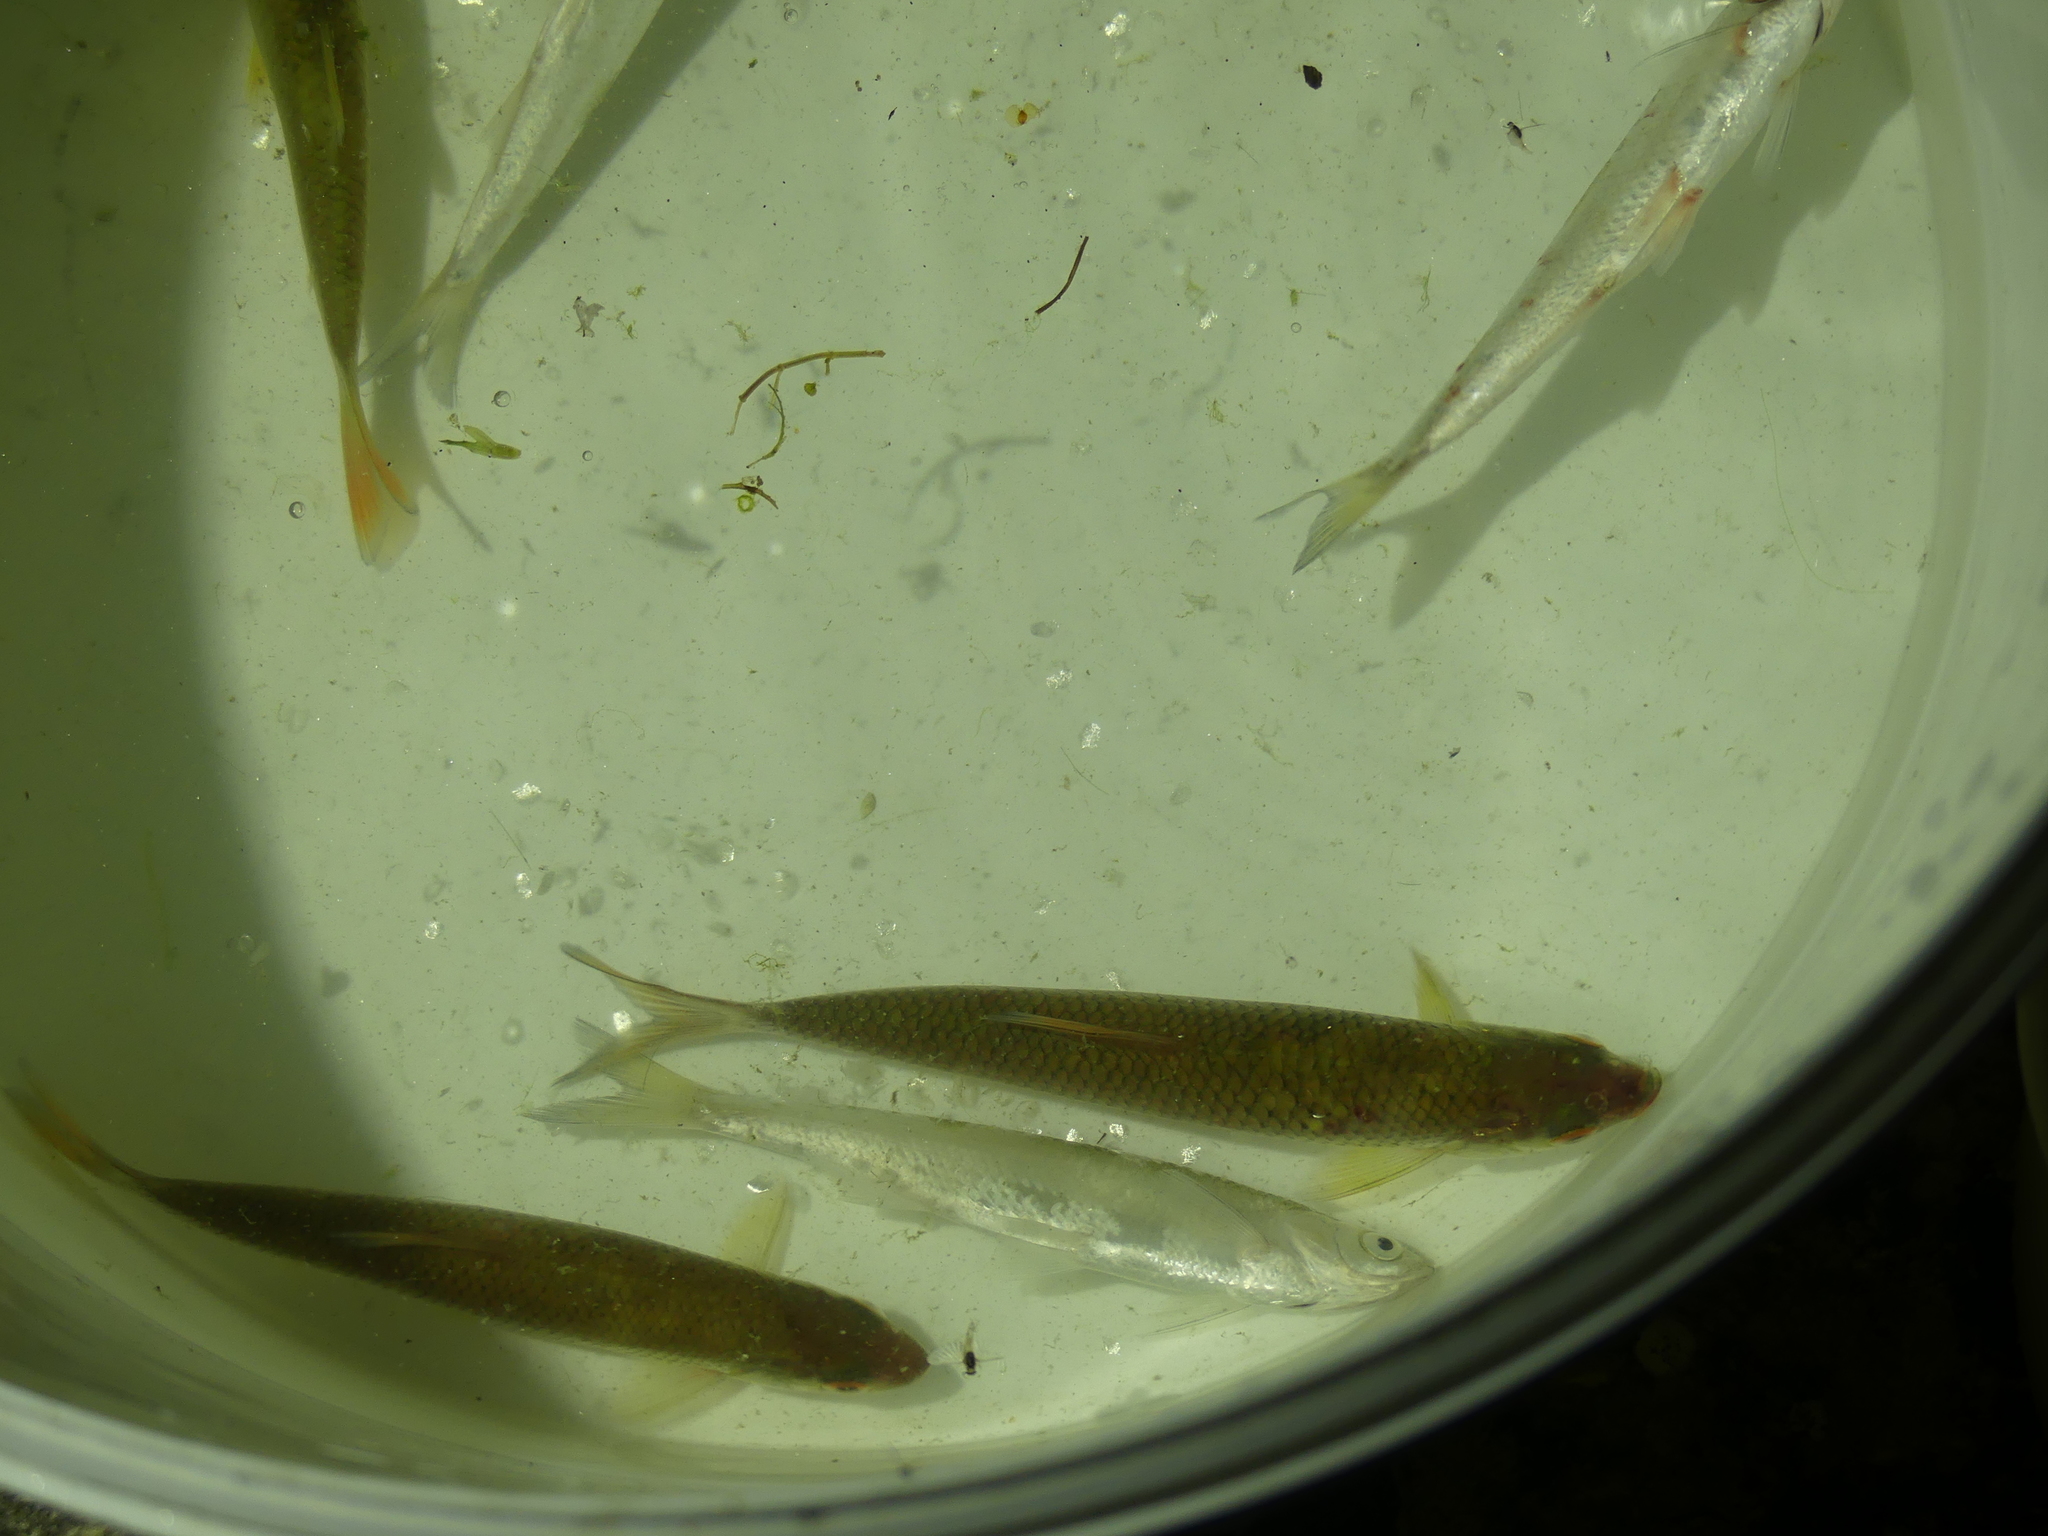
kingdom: Animalia
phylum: Chordata
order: Cypriniformes
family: Cyprinidae
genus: Alburnus
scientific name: Alburnus alburnus
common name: Bleak
